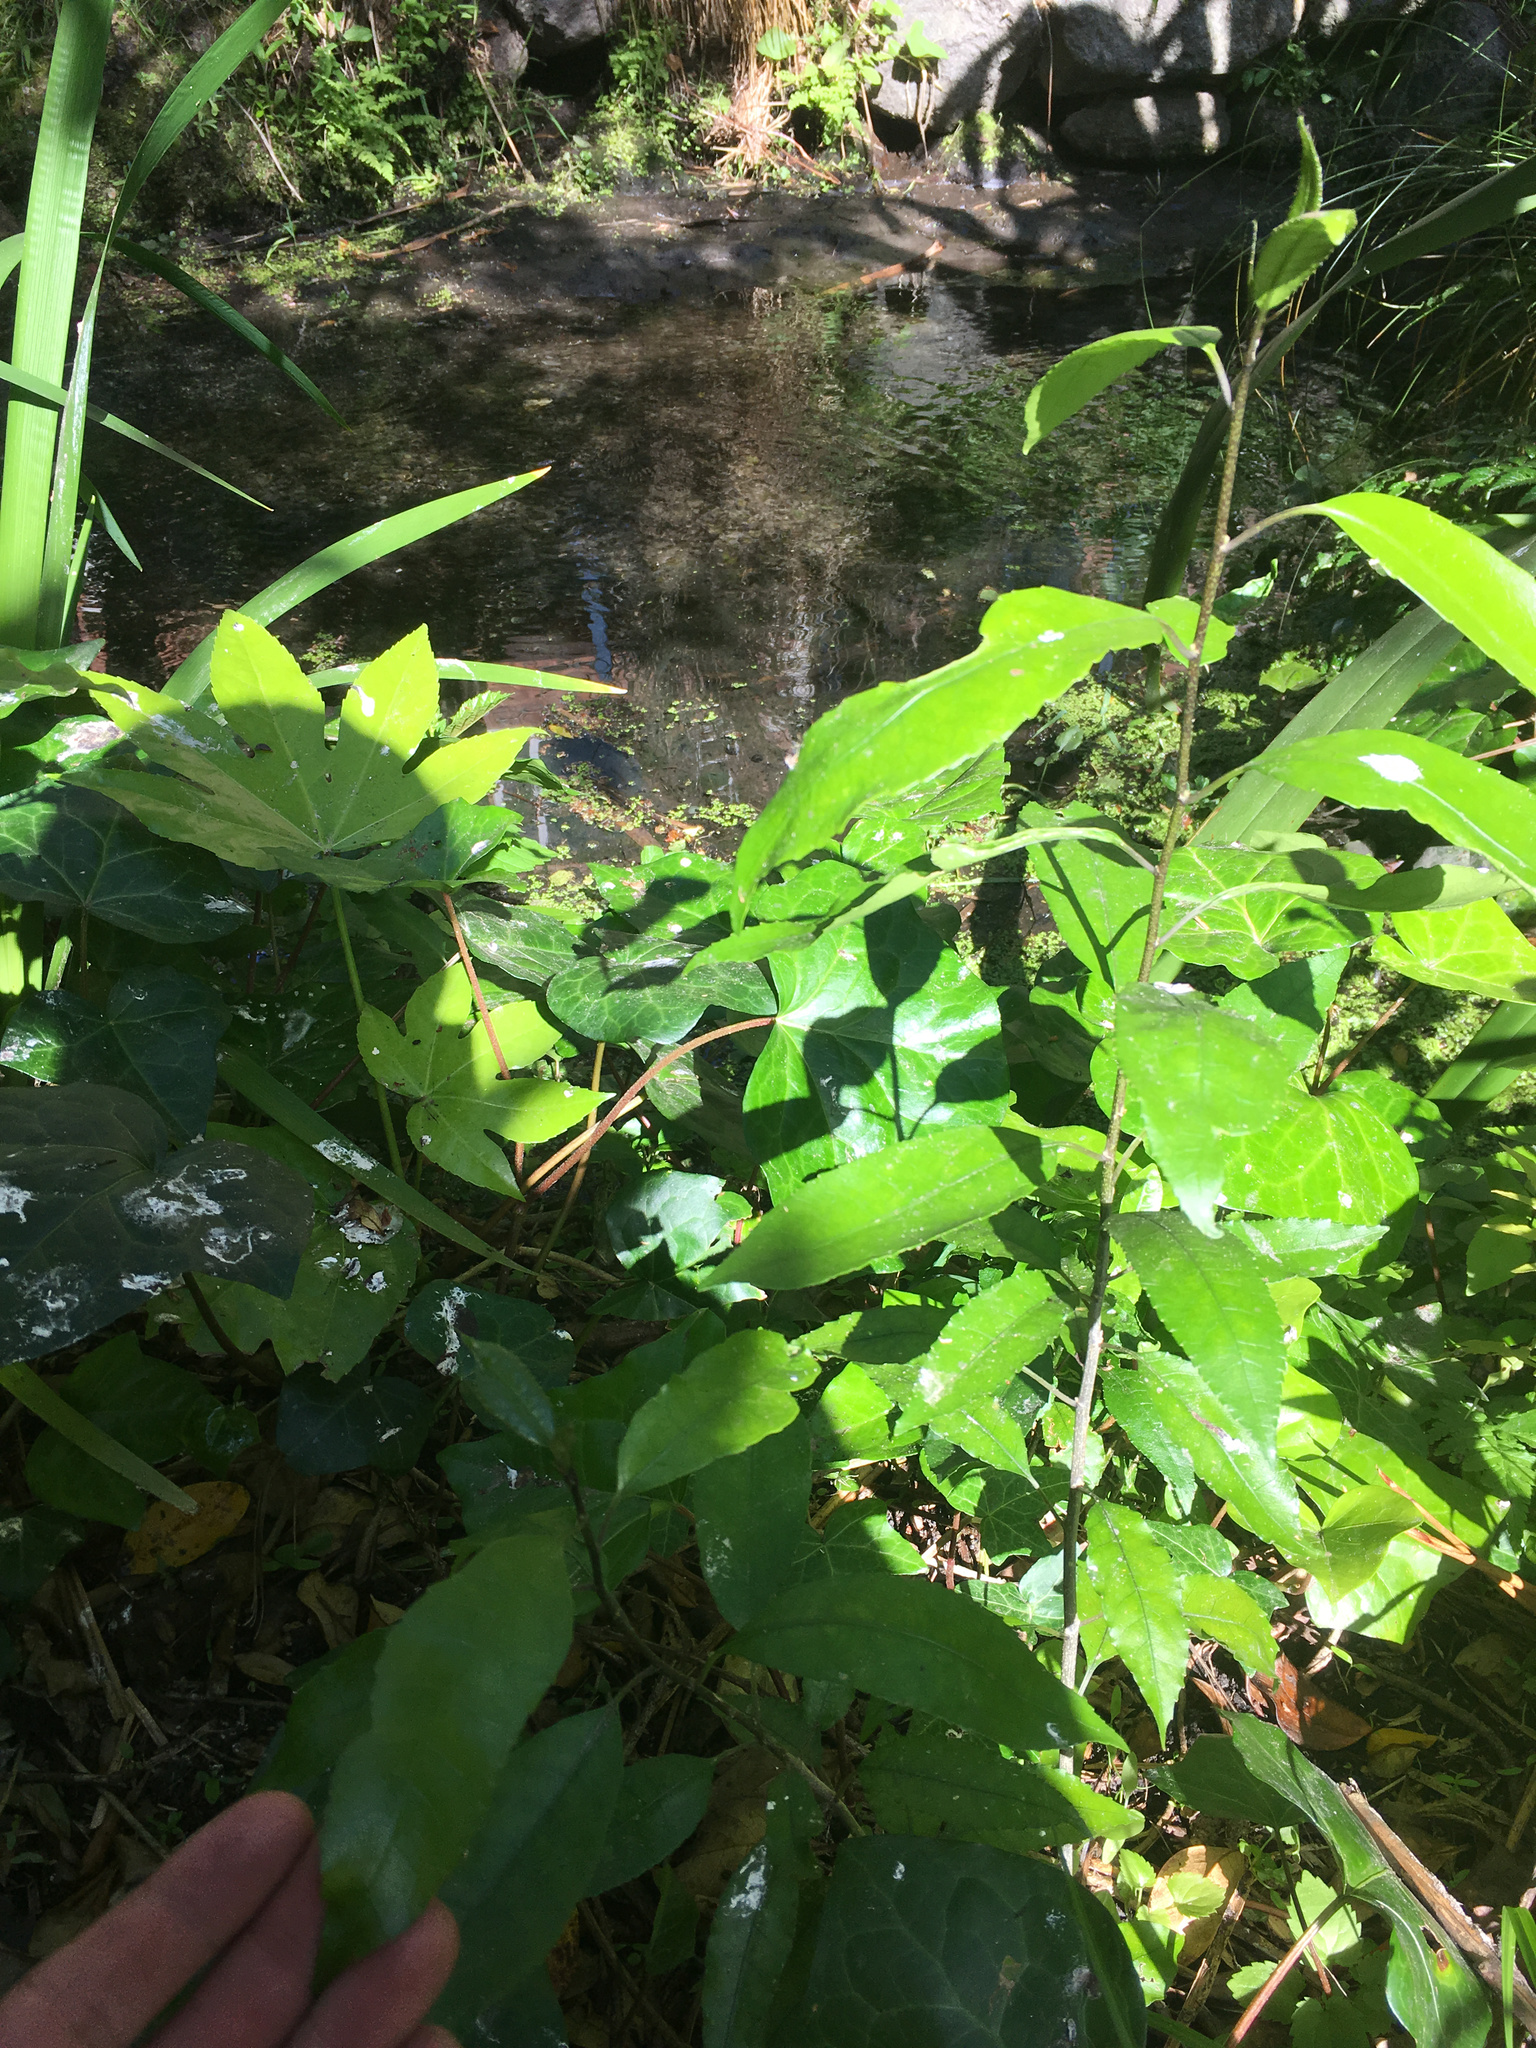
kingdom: Plantae
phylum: Tracheophyta
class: Magnoliopsida
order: Malpighiales
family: Violaceae
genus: Melicytus
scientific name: Melicytus ramiflorus
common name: Mahoe
